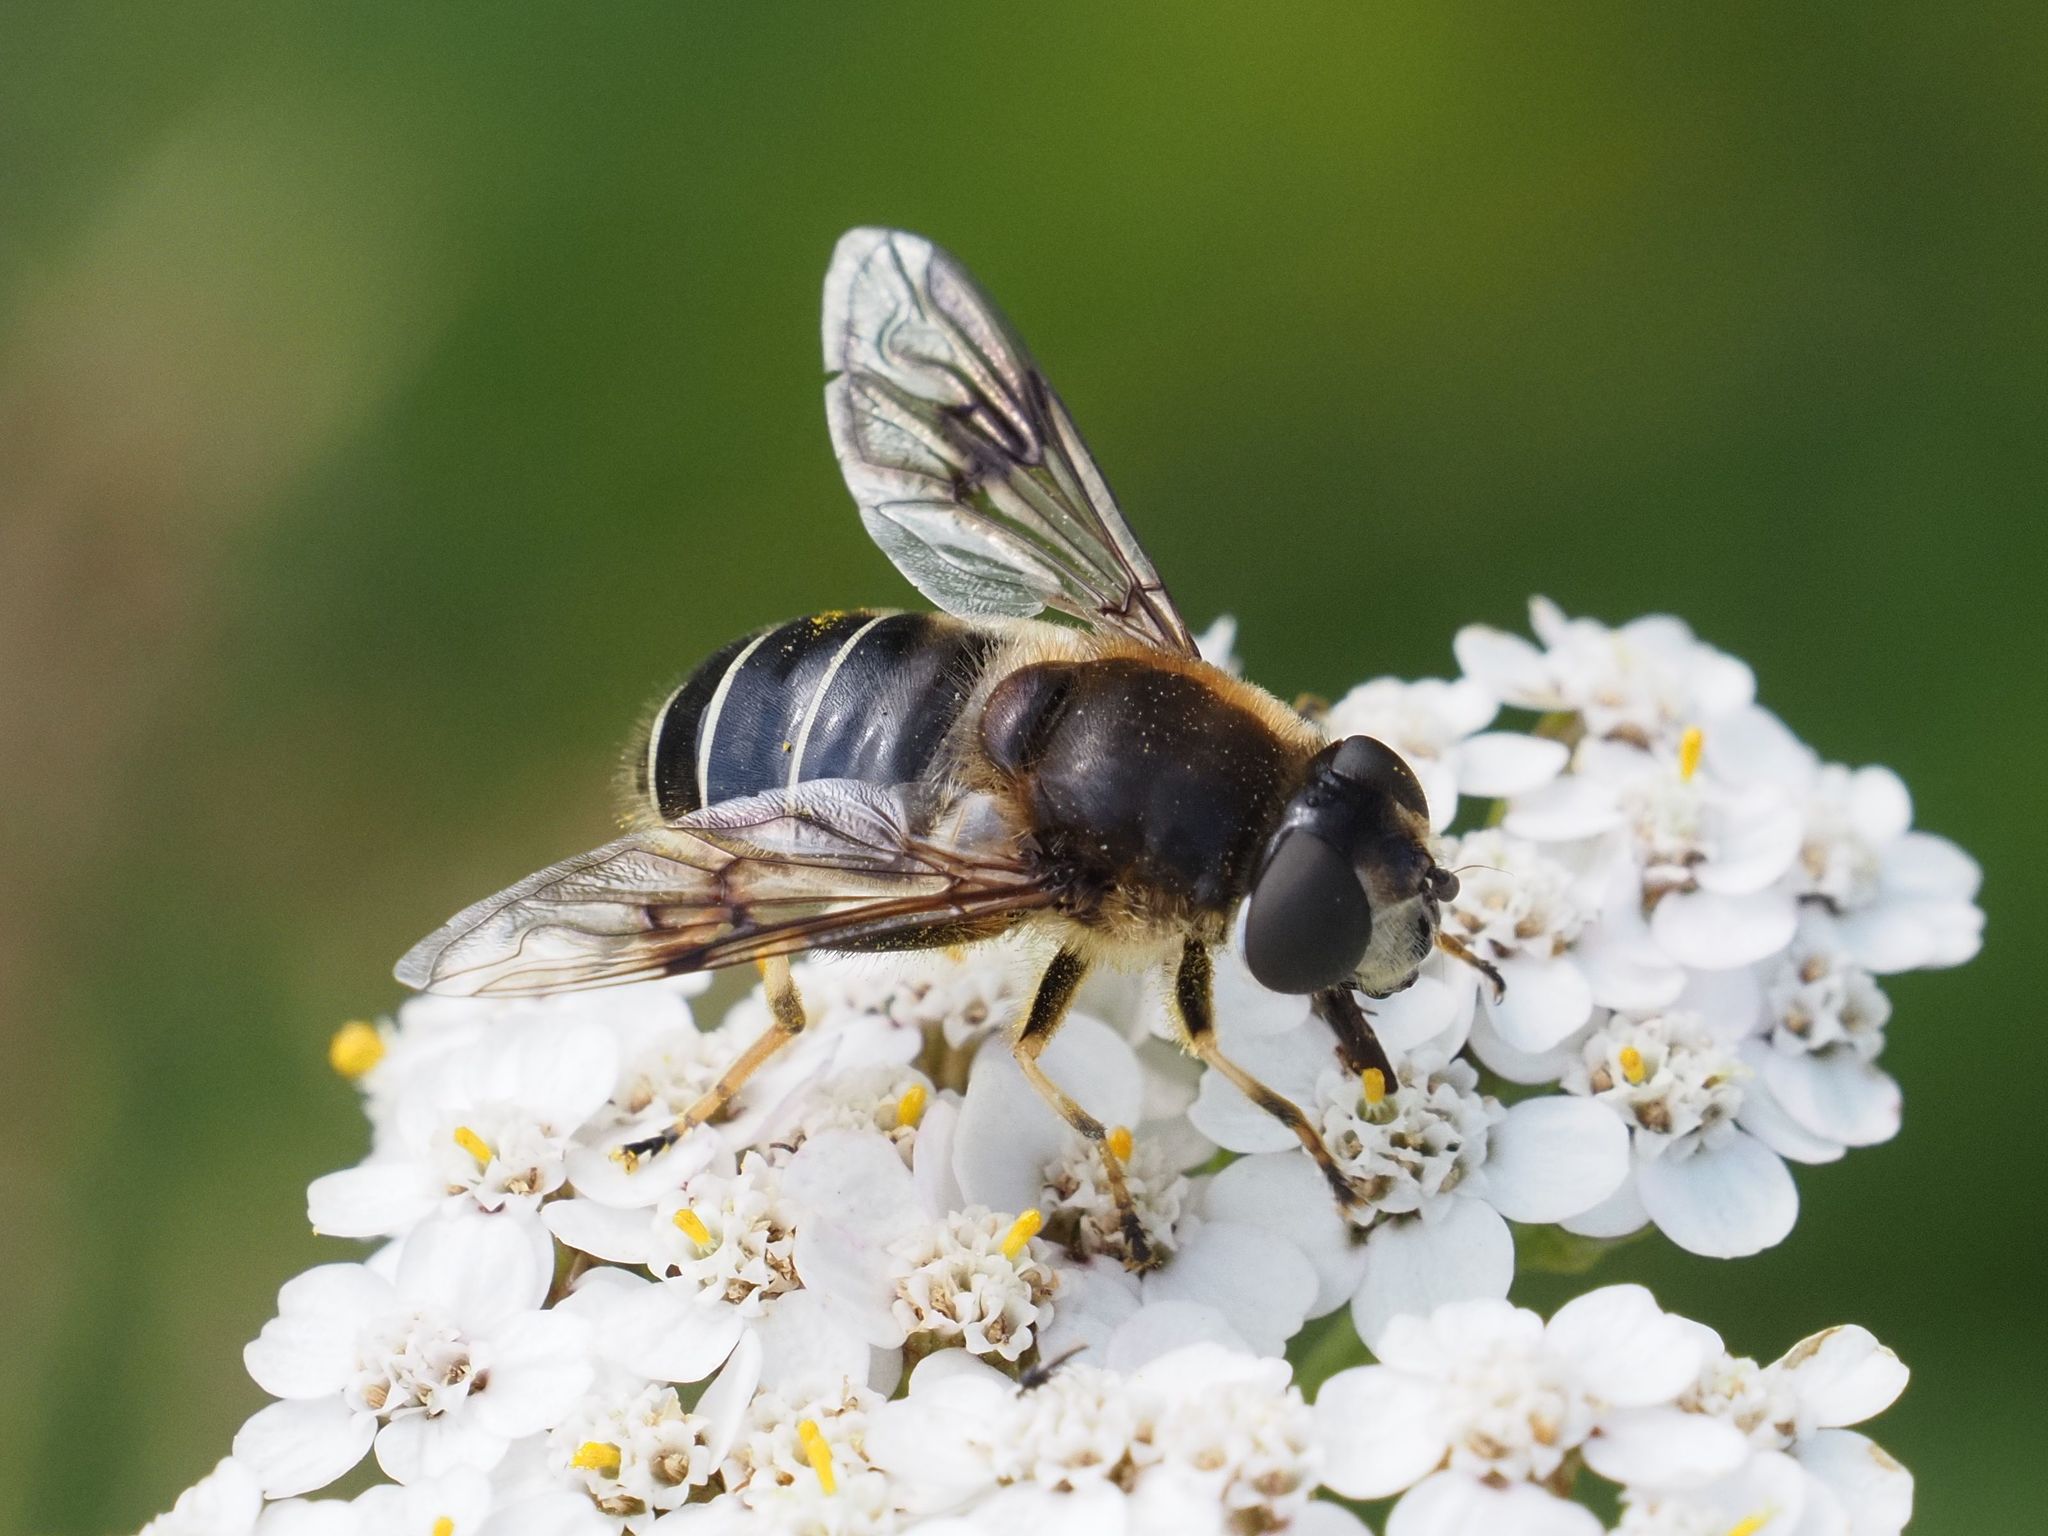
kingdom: Animalia
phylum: Arthropoda
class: Insecta
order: Diptera
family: Syrphidae
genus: Eristalis
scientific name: Eristalis rupium
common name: Hover fly
